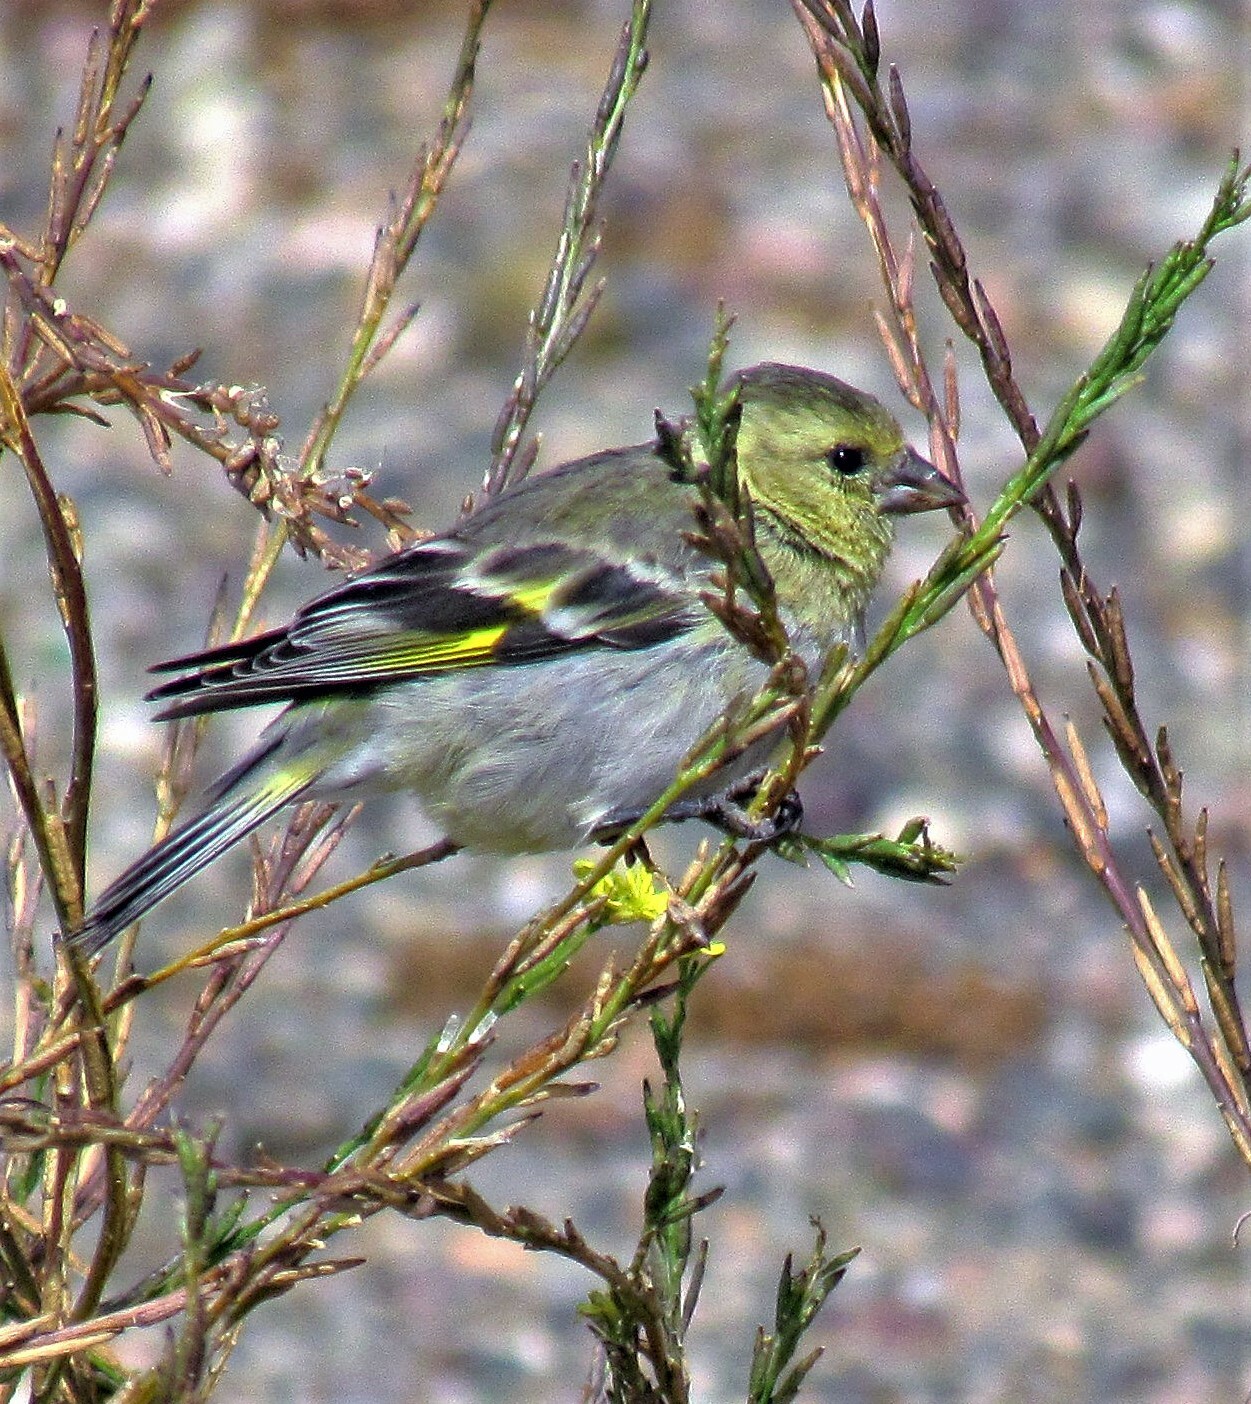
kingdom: Animalia
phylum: Chordata
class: Aves
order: Passeriformes
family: Fringillidae
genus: Spinus
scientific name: Spinus barbatus
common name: Black-chinned siskin
